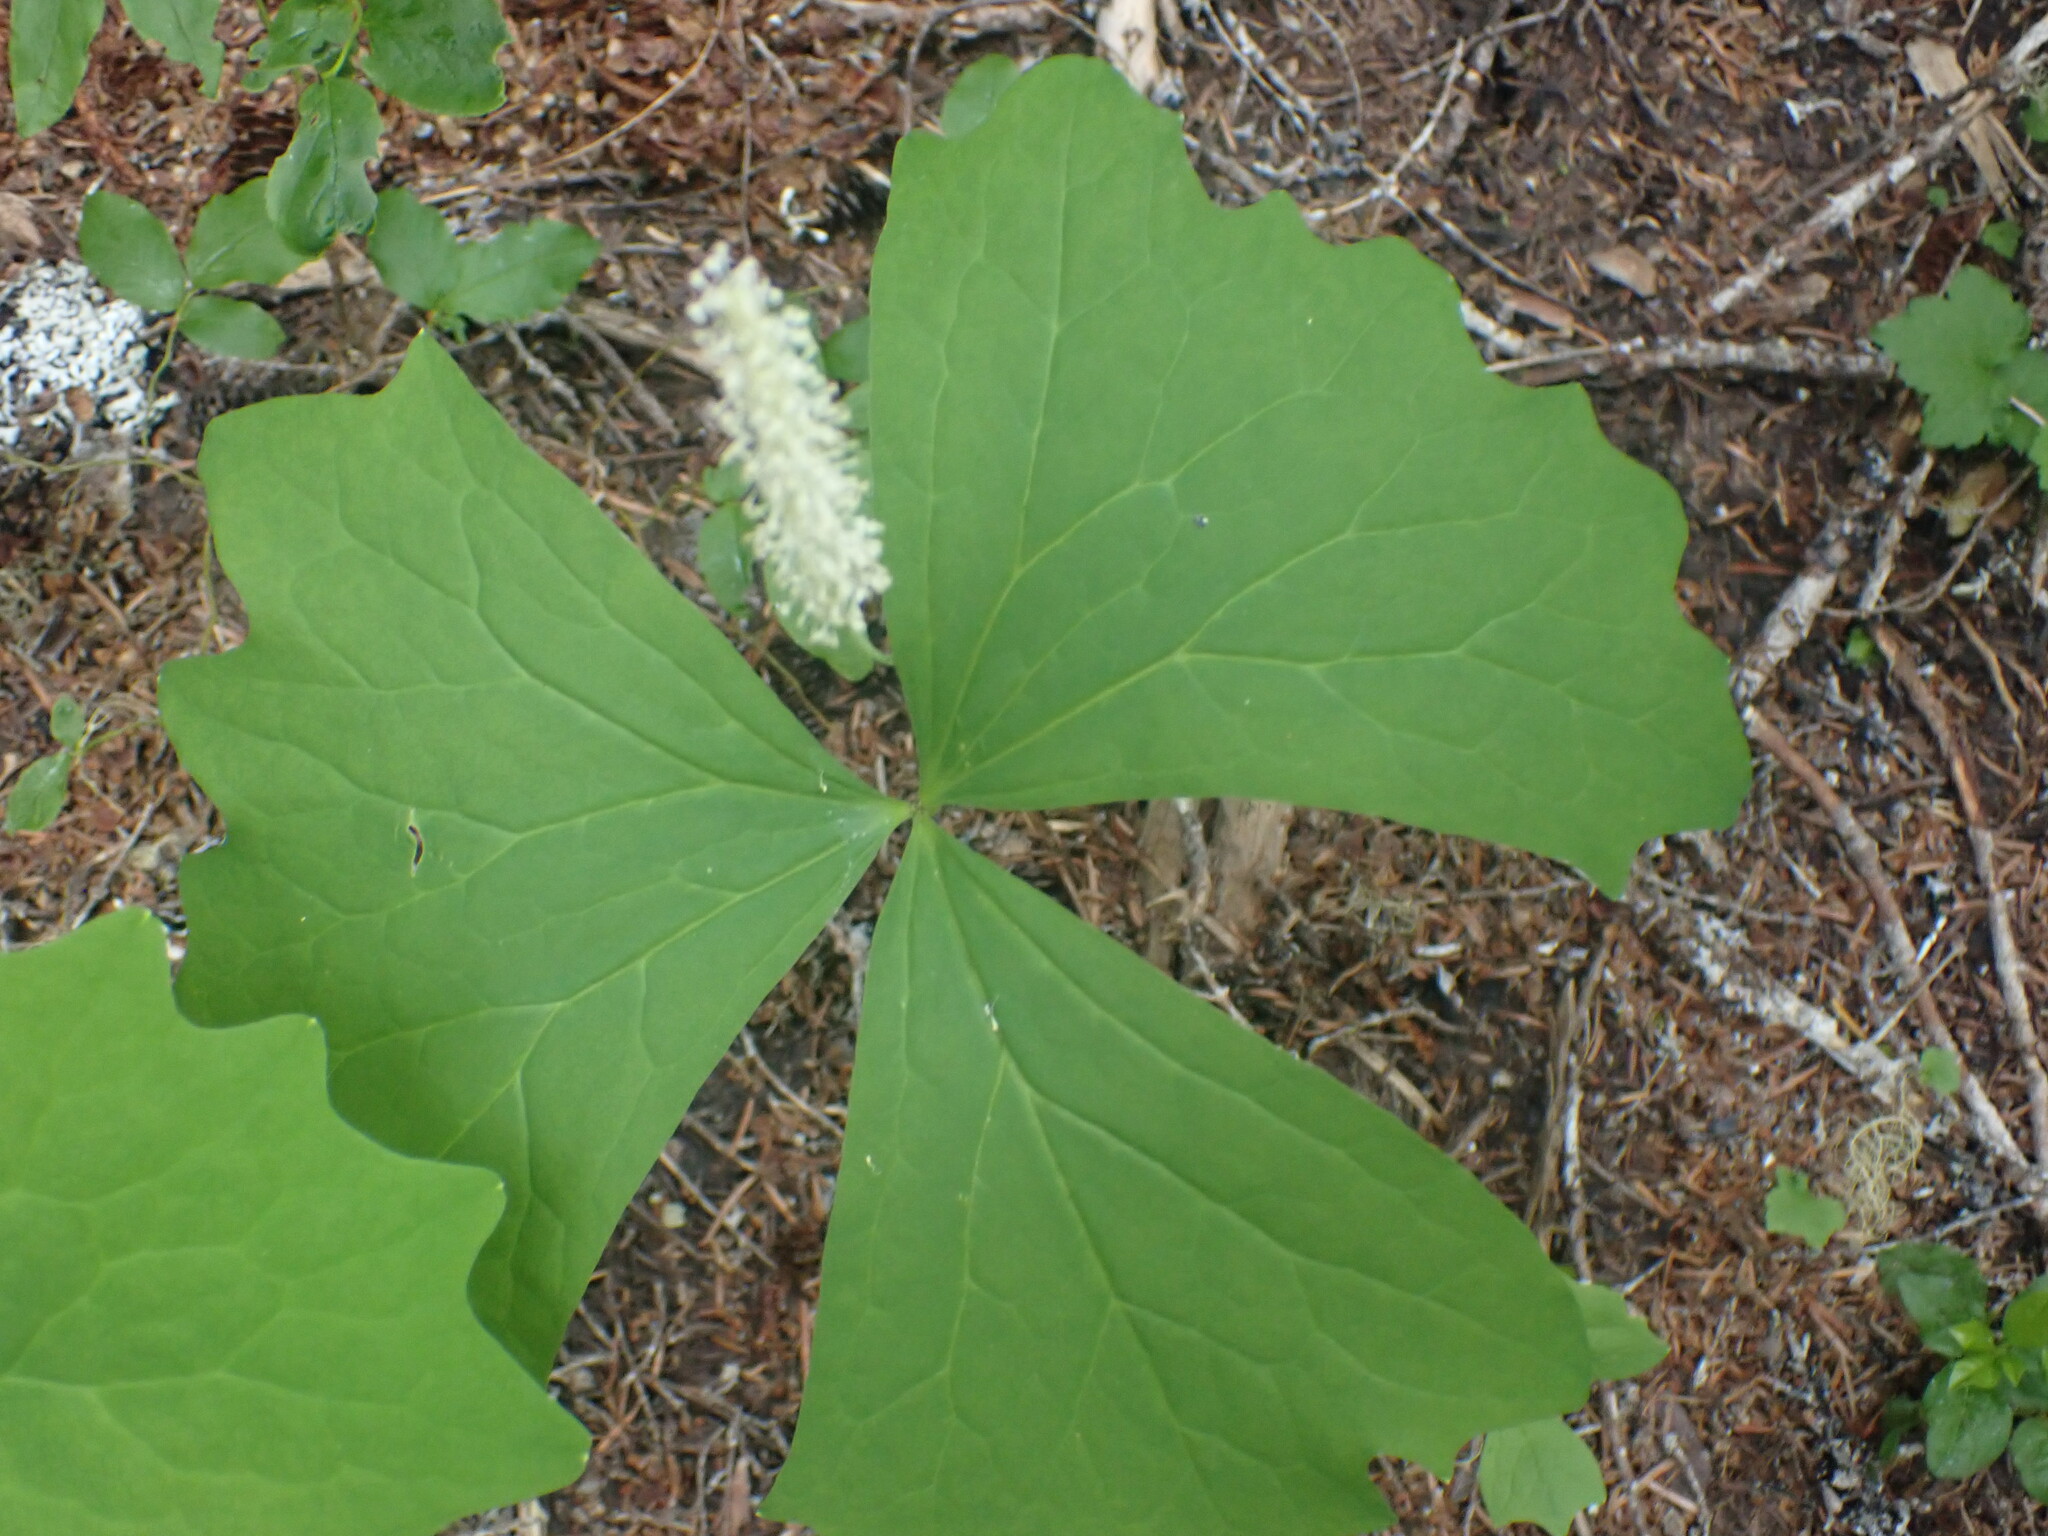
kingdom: Plantae
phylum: Tracheophyta
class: Magnoliopsida
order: Ranunculales
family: Berberidaceae
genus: Achlys
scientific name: Achlys triphylla
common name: Vanilla-leaf
